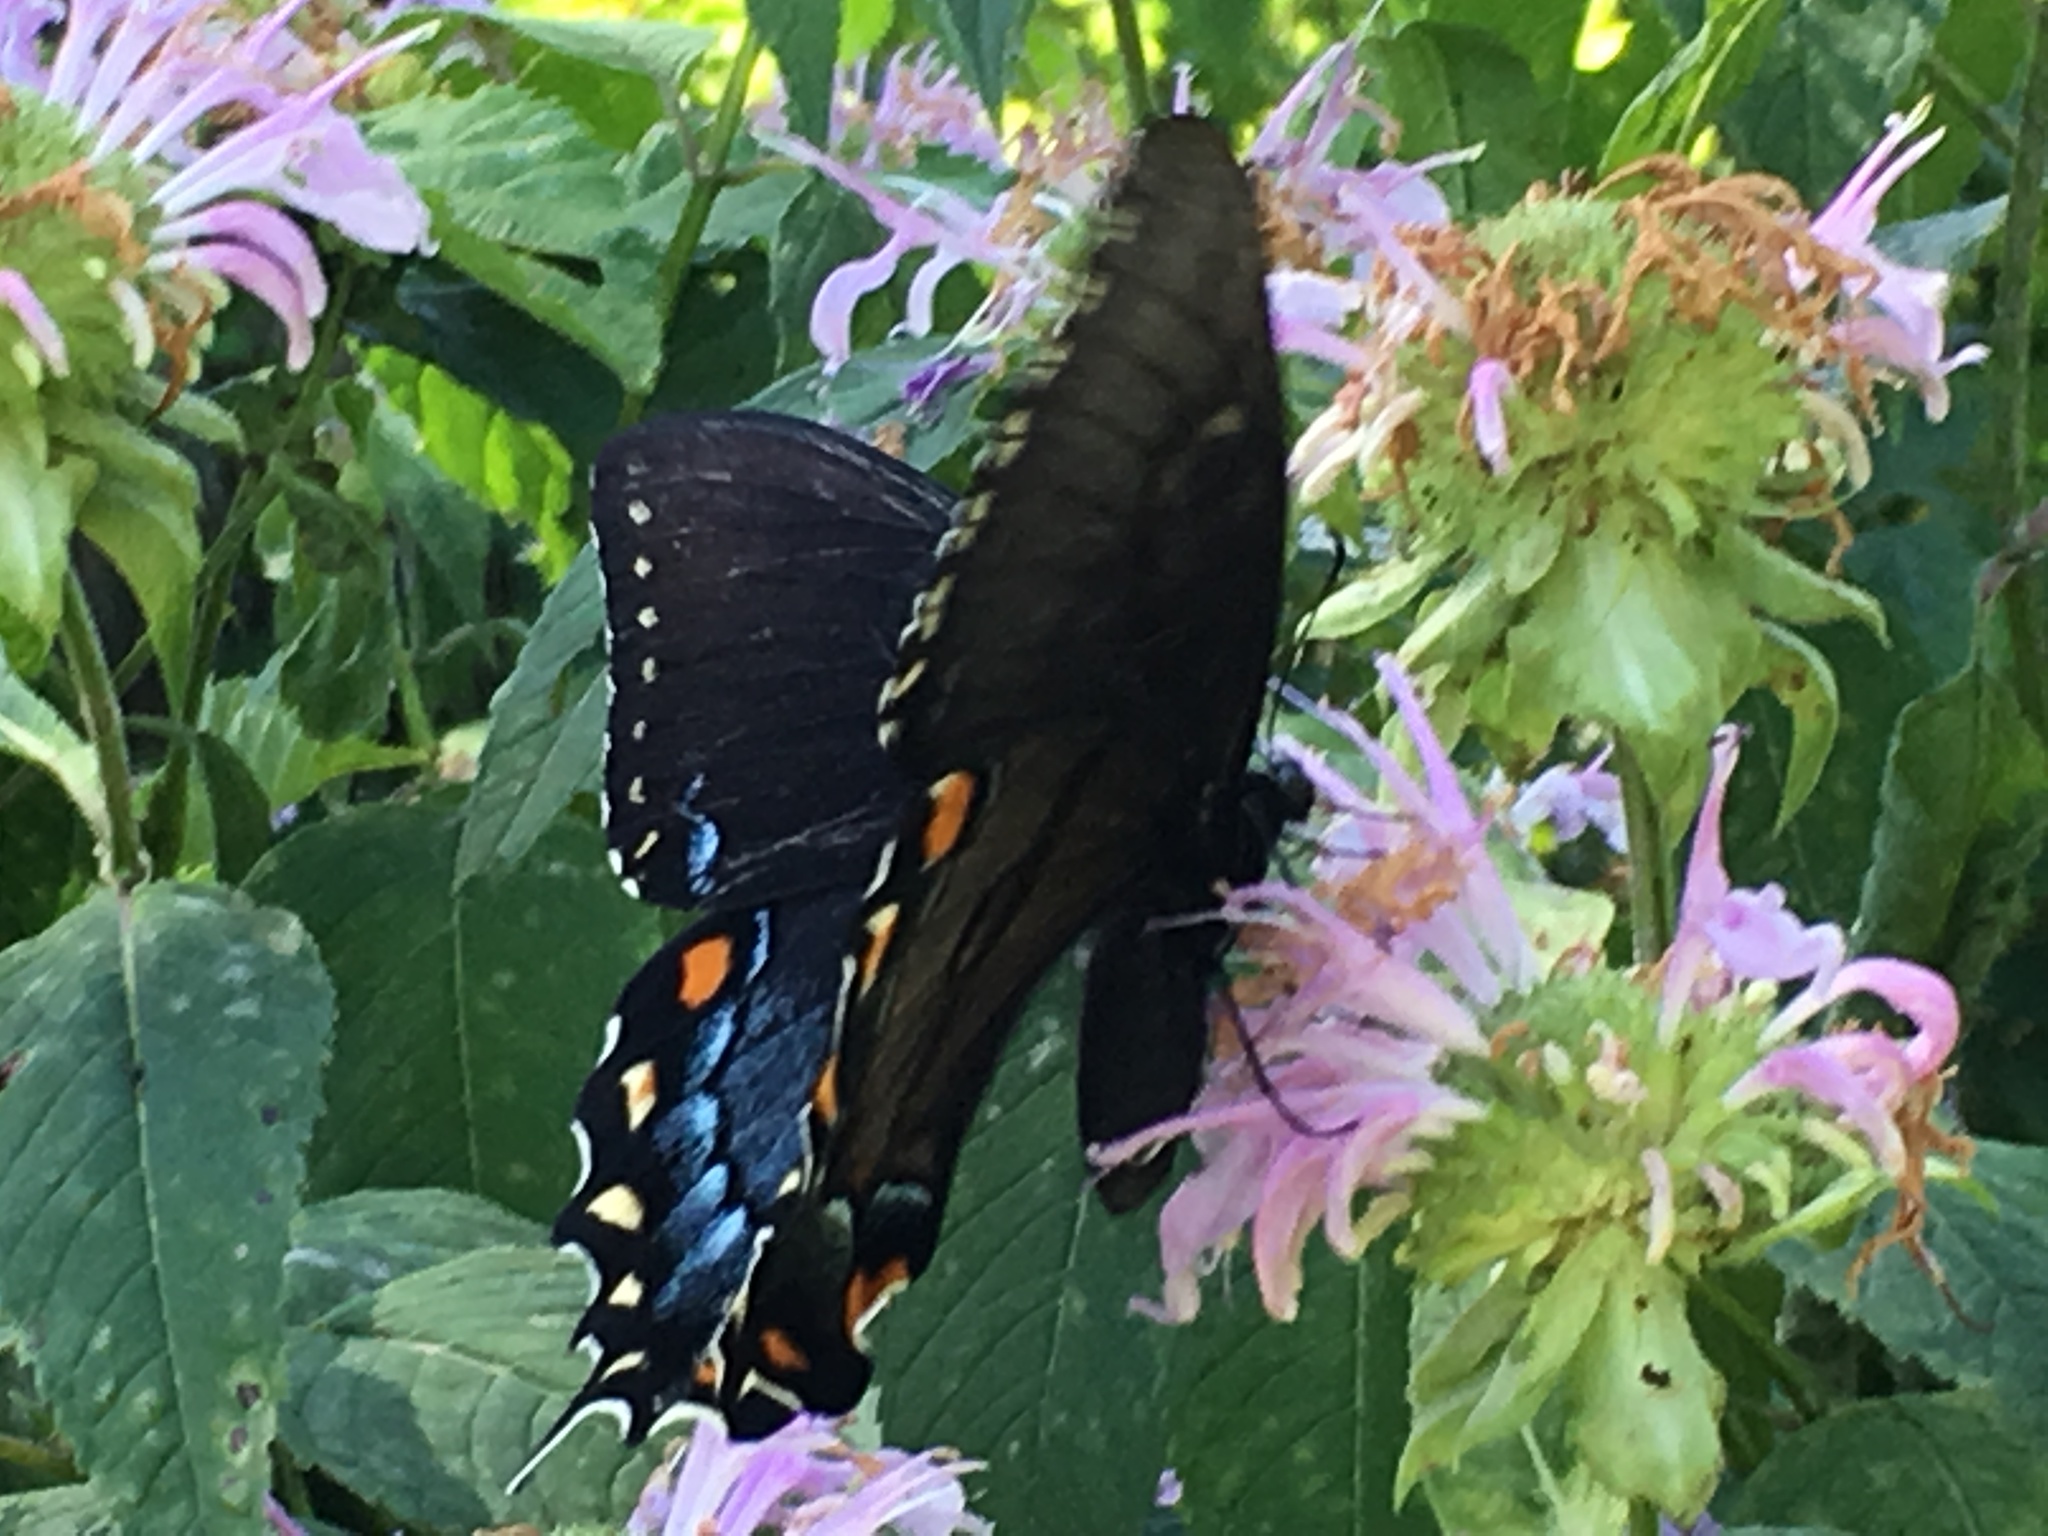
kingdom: Animalia
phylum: Arthropoda
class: Insecta
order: Lepidoptera
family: Papilionidae
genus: Papilio
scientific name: Papilio glaucus
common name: Tiger swallowtail
